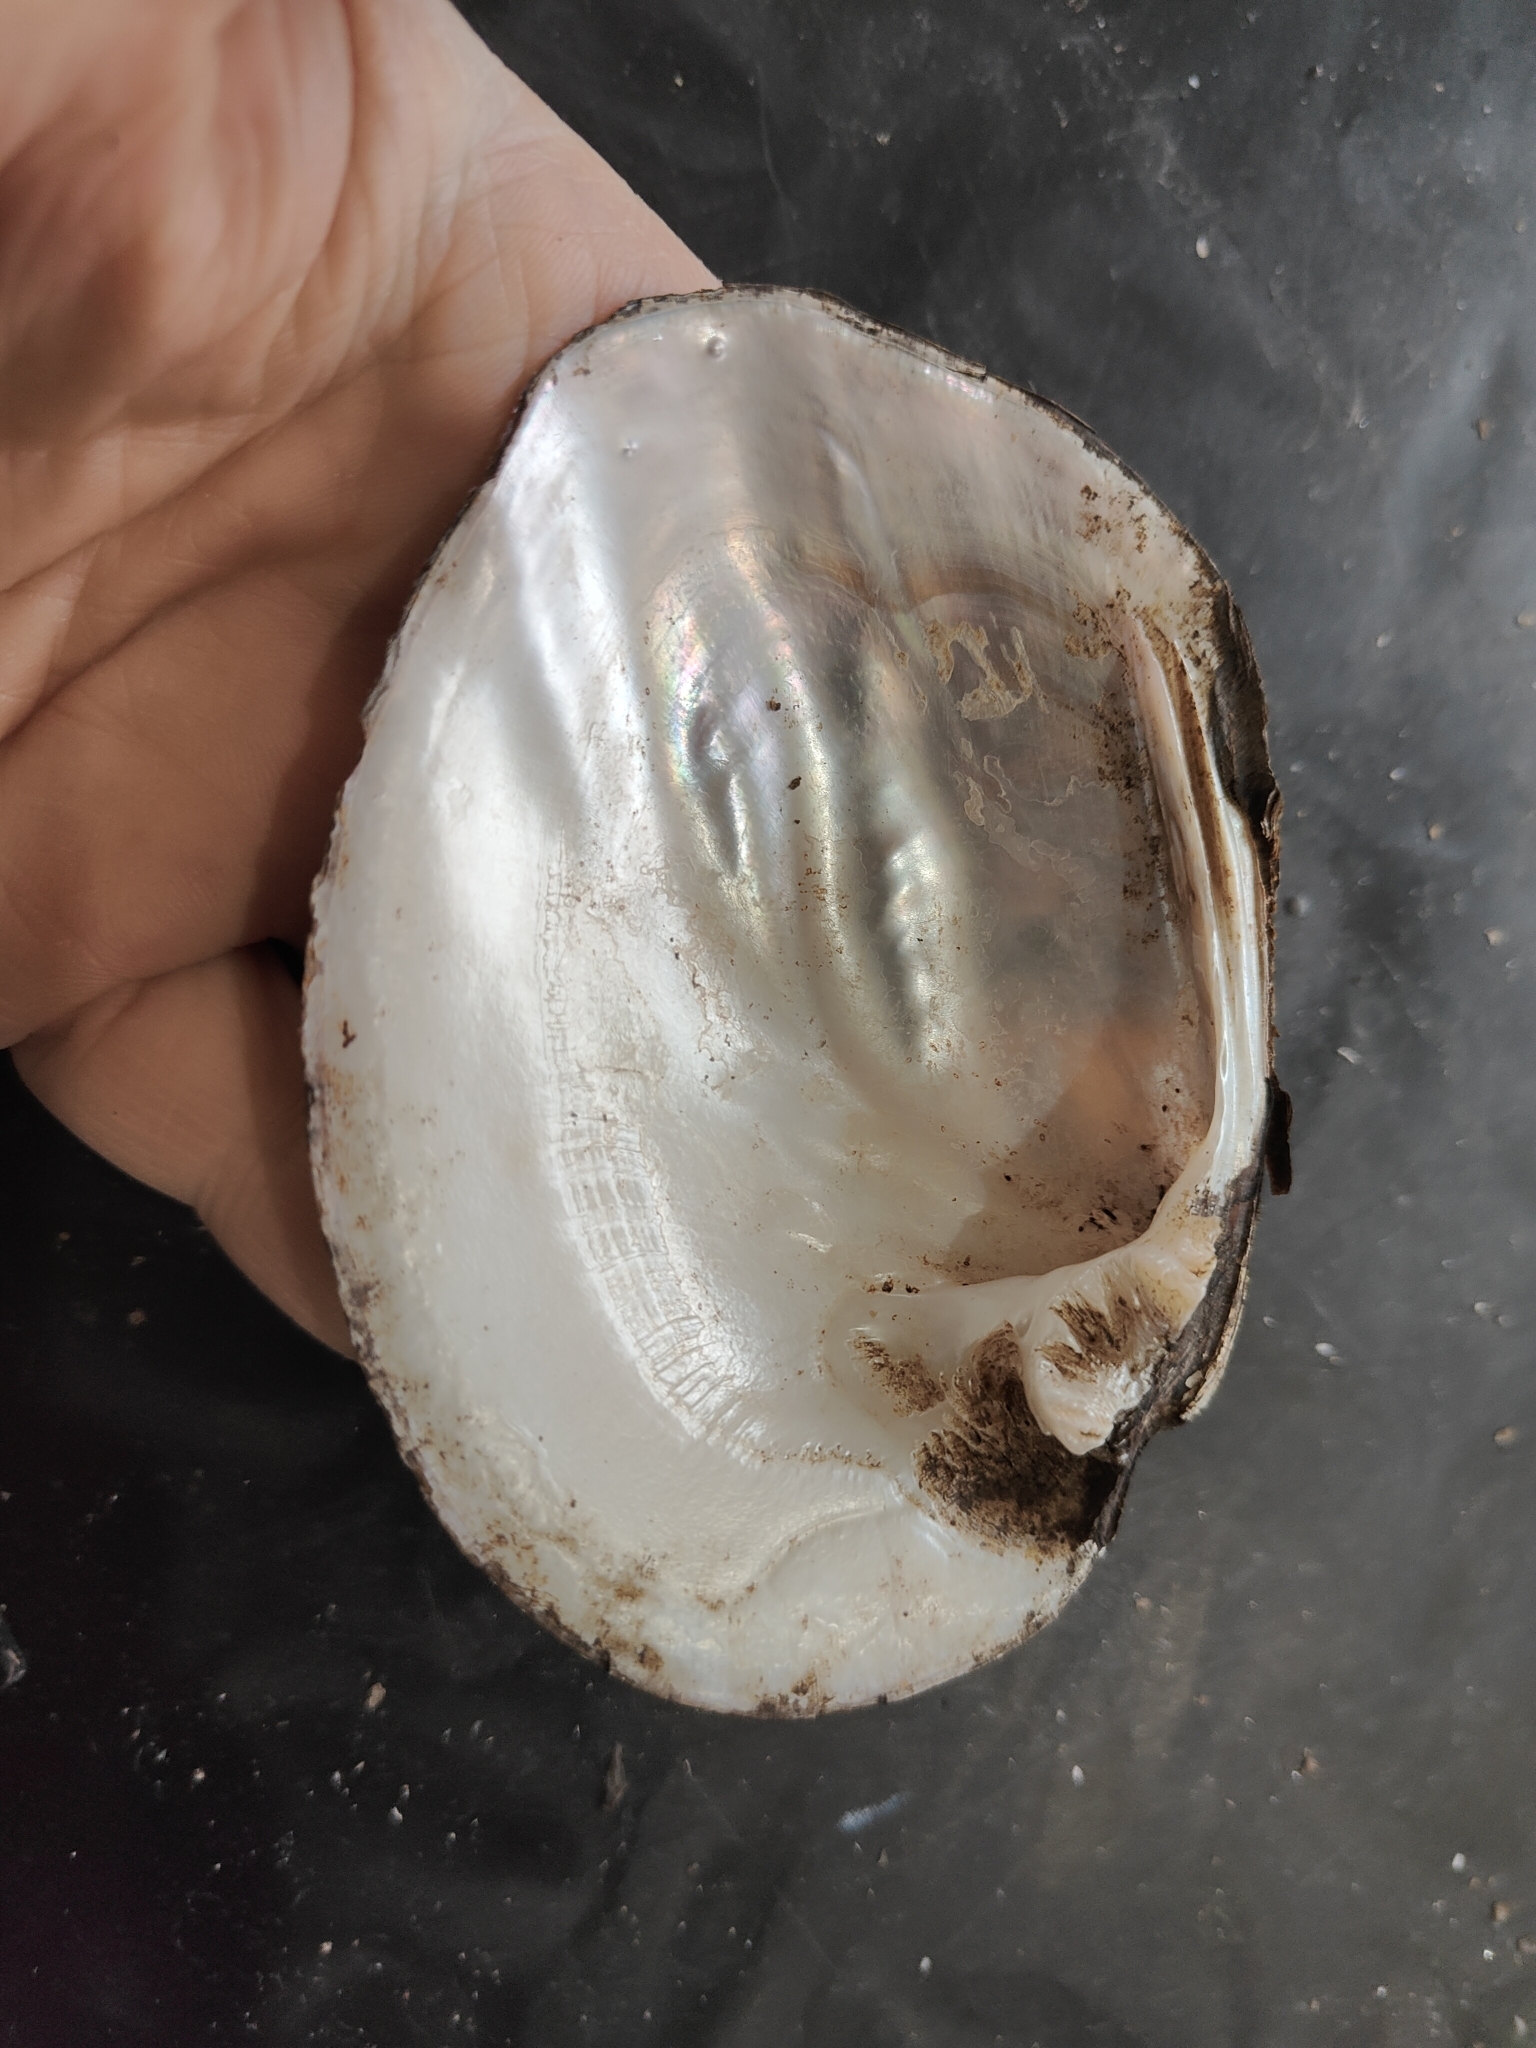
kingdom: Animalia
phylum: Mollusca
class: Bivalvia
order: Unionida
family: Unionidae
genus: Amblema
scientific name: Amblema plicata
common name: Threeridge
